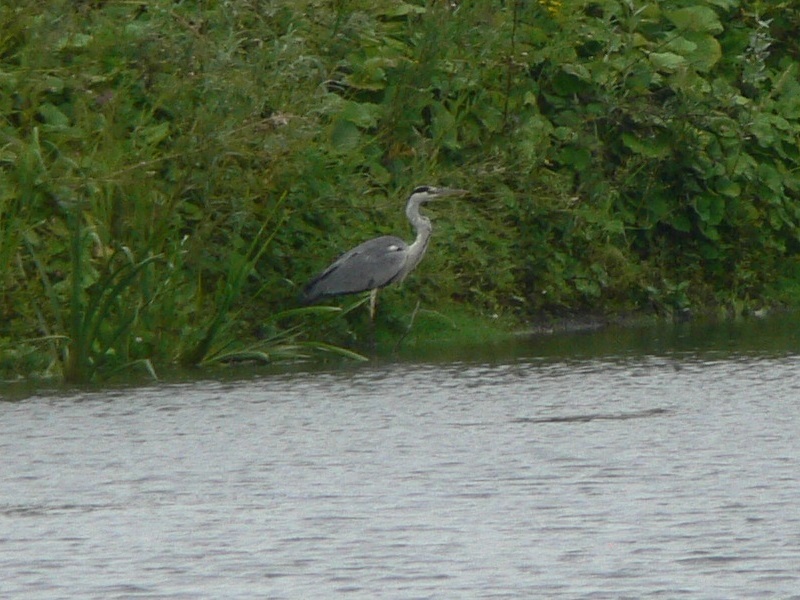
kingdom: Animalia
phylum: Chordata
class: Aves
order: Pelecaniformes
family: Ardeidae
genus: Ardea
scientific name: Ardea cinerea
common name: Grey heron
